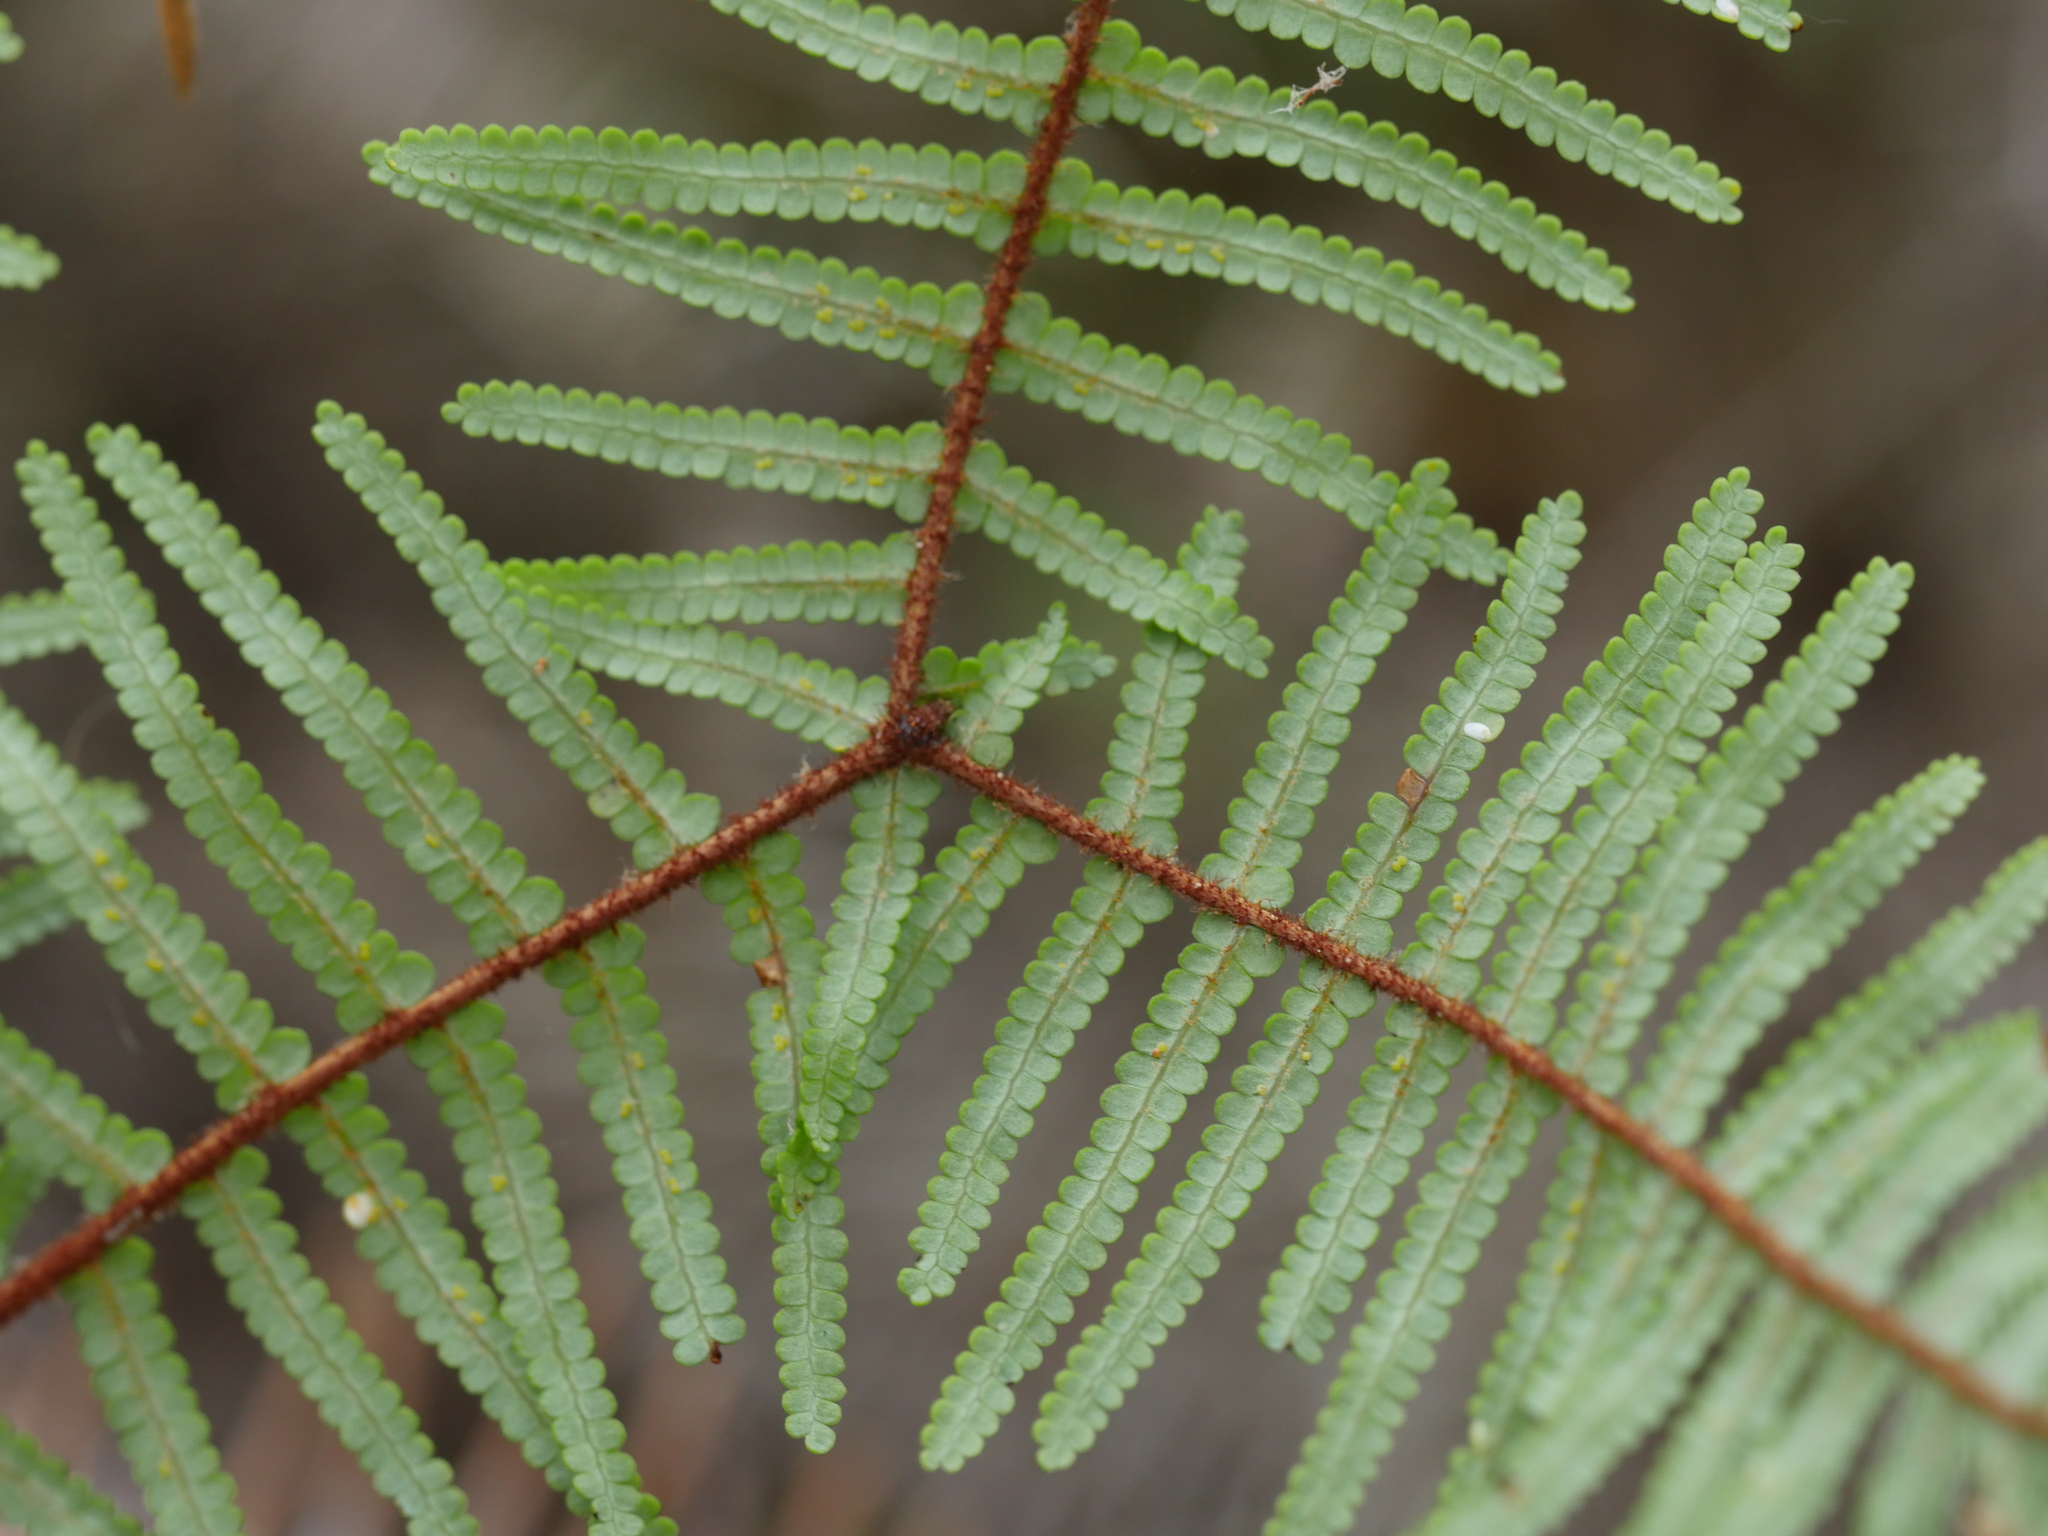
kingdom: Plantae
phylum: Tracheophyta
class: Polypodiopsida
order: Gleicheniales
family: Gleicheniaceae
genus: Gleichenia
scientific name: Gleichenia microphylla
